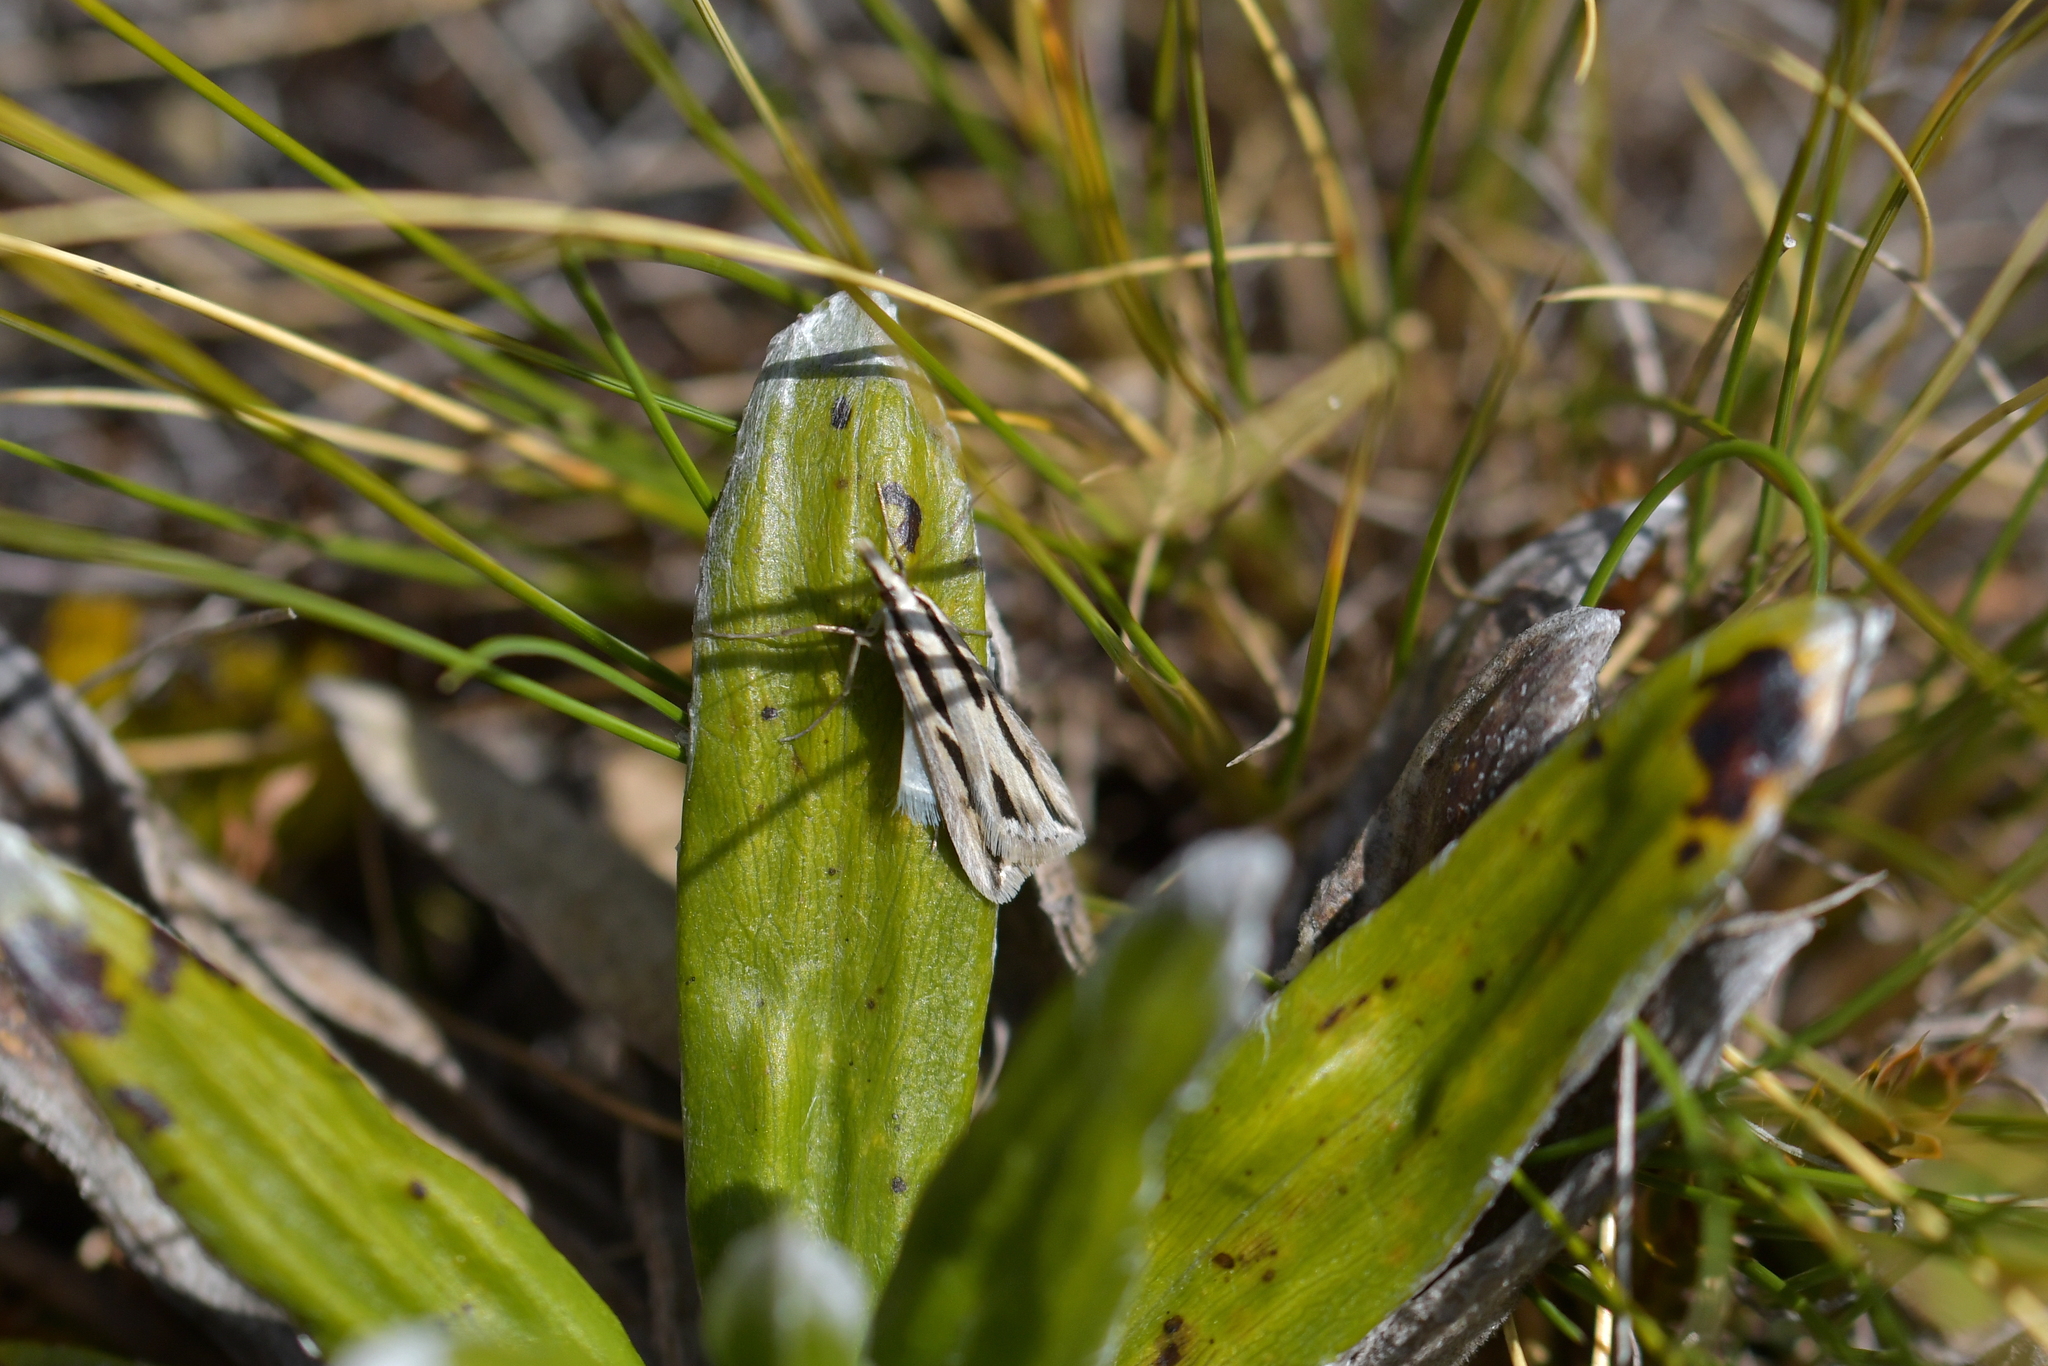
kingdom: Animalia
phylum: Arthropoda
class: Insecta
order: Lepidoptera
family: Crambidae
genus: Eudonia
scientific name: Eudonia trivirgata
